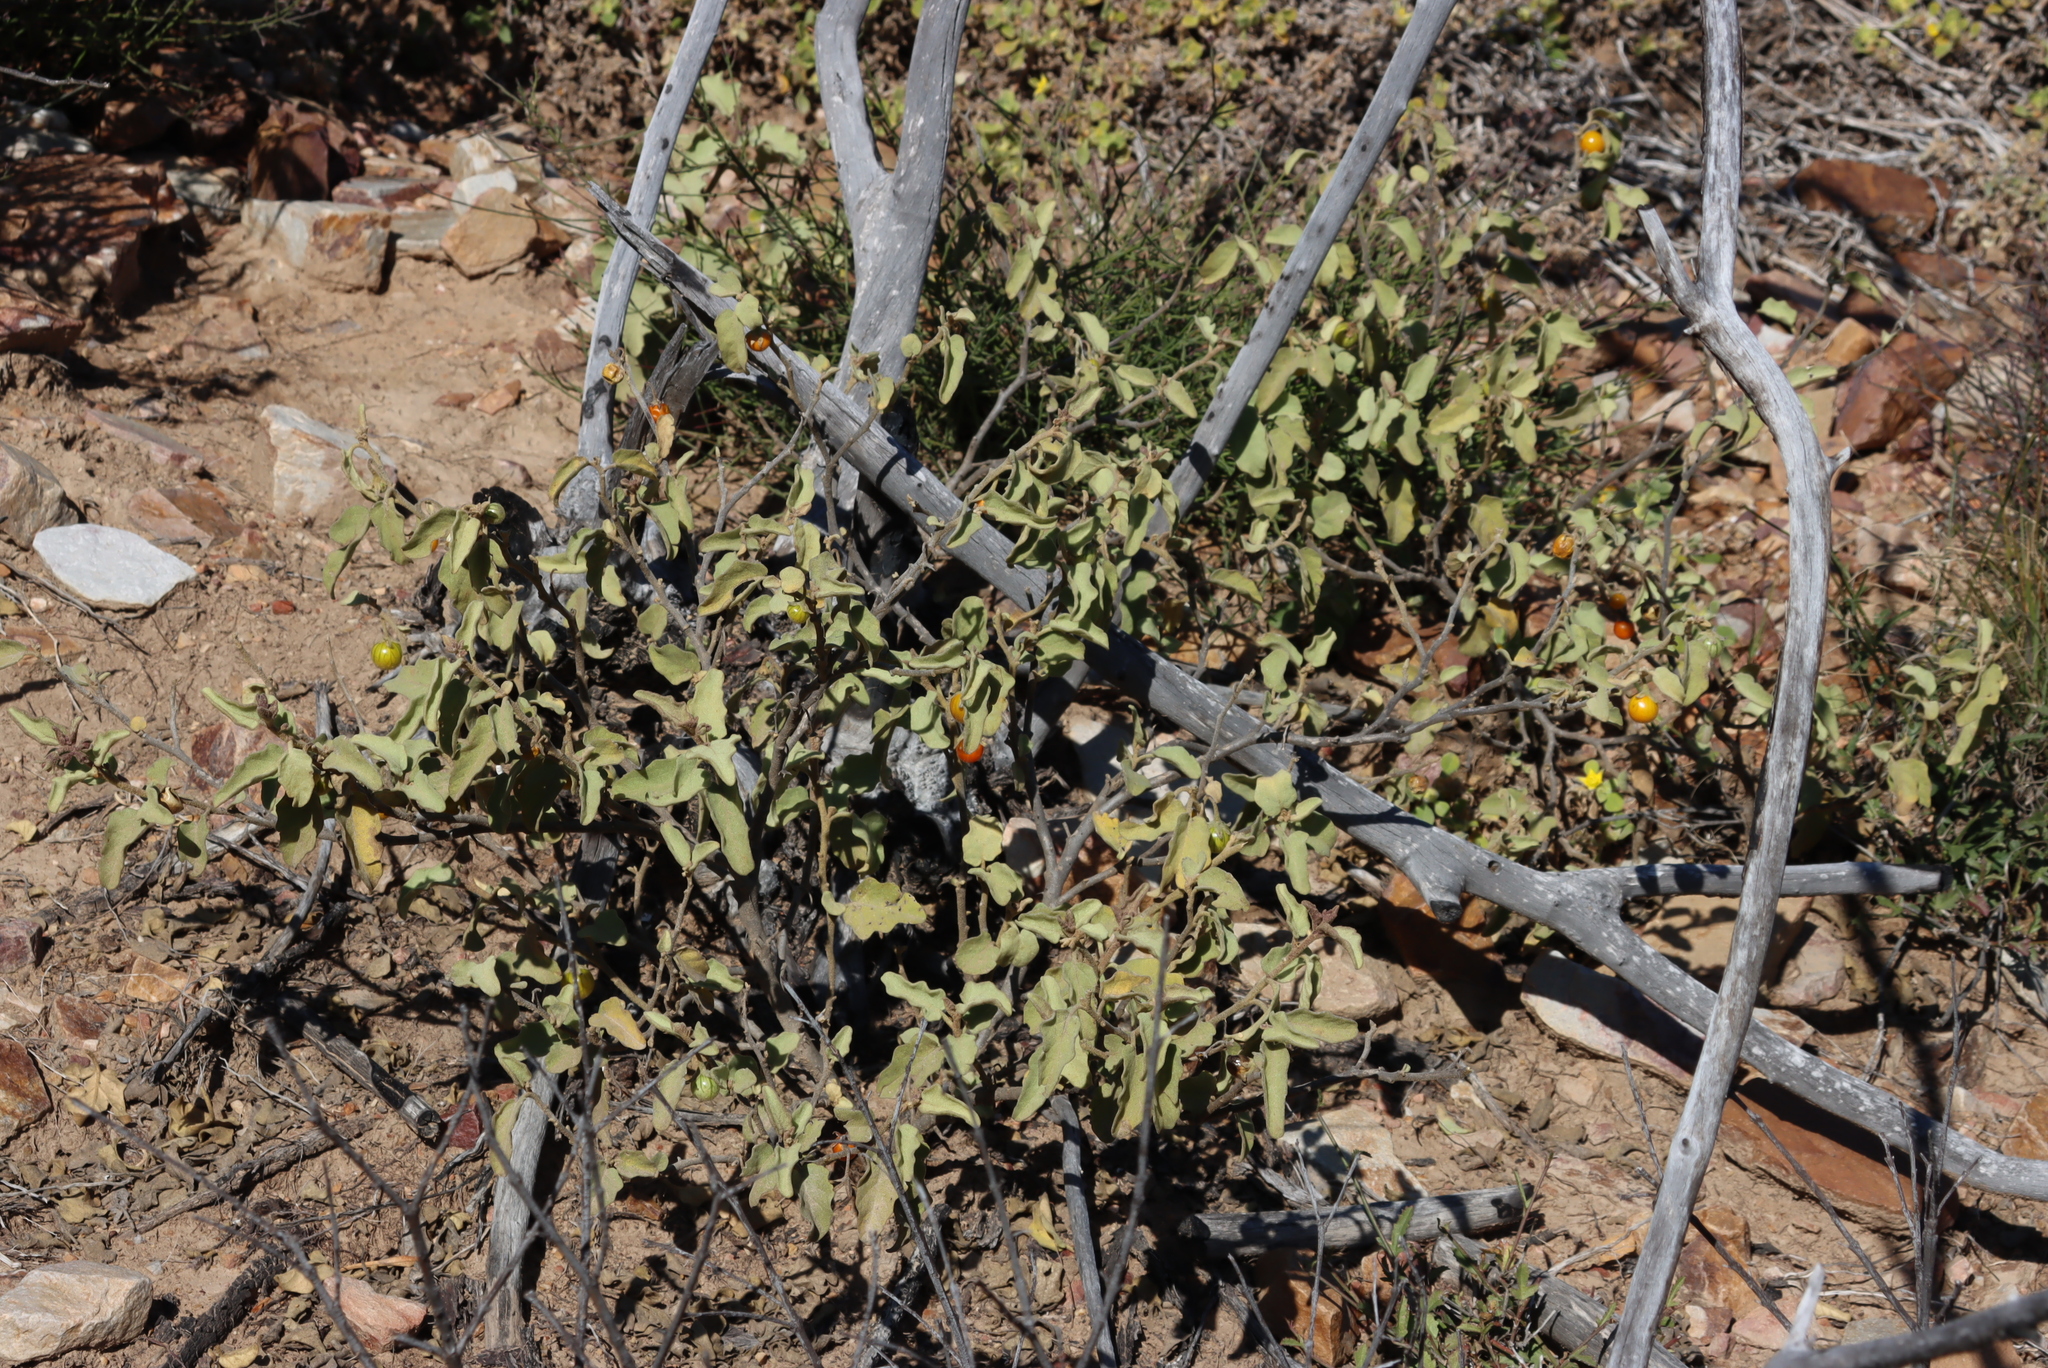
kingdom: Plantae
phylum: Tracheophyta
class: Magnoliopsida
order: Solanales
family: Solanaceae
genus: Solanum
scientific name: Solanum tomentosum
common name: Wild aubergine
